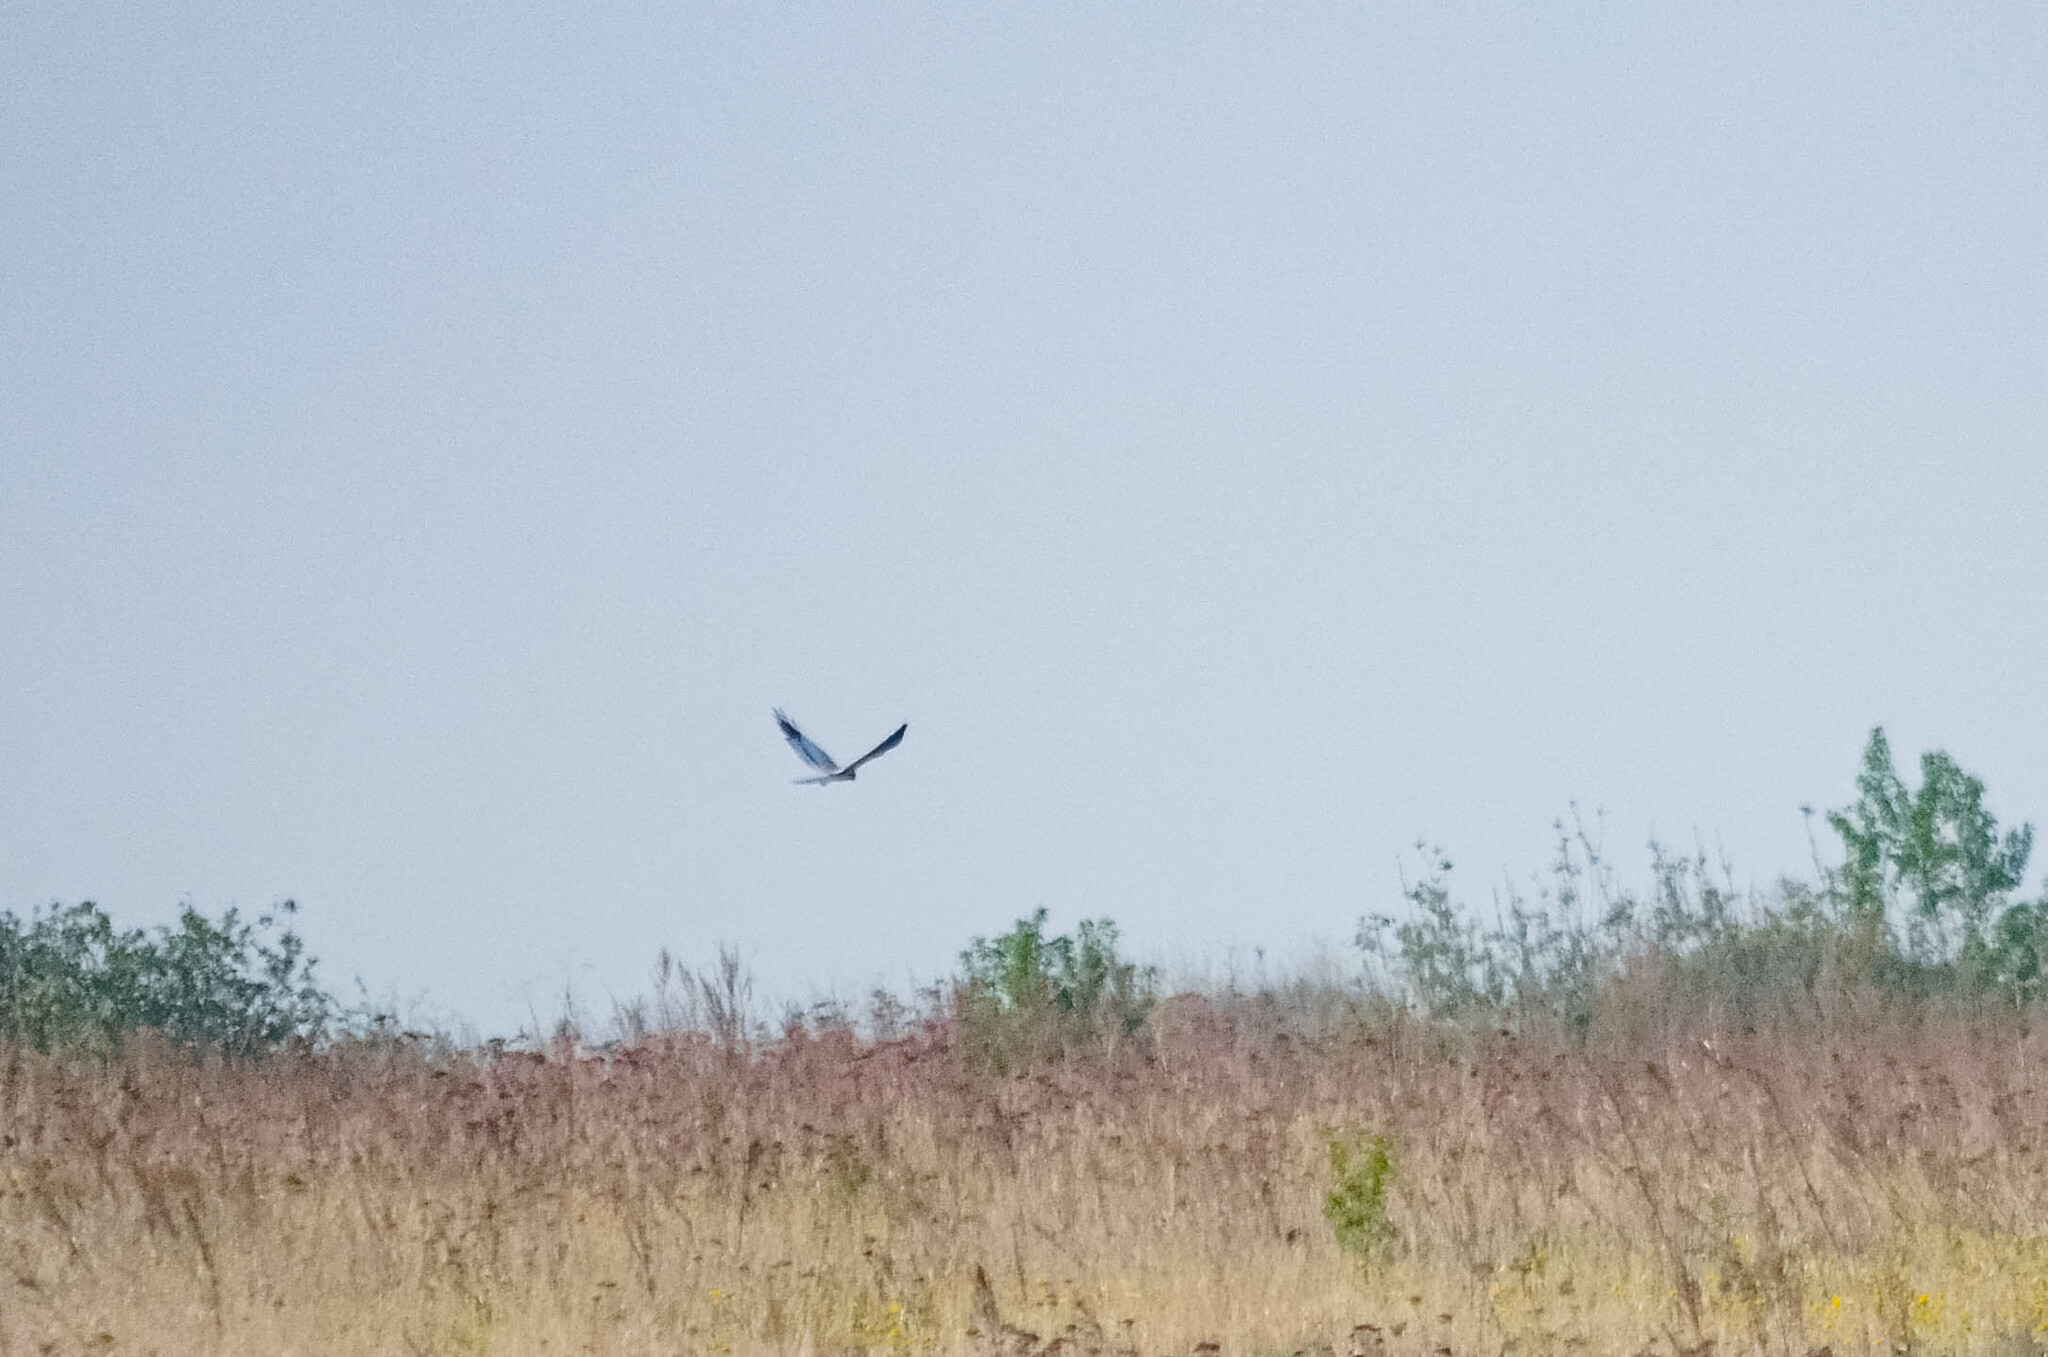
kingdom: Animalia
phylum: Chordata
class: Aves
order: Accipitriformes
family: Accipitridae
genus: Circus
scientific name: Circus pygargus
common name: Montagu's harrier
